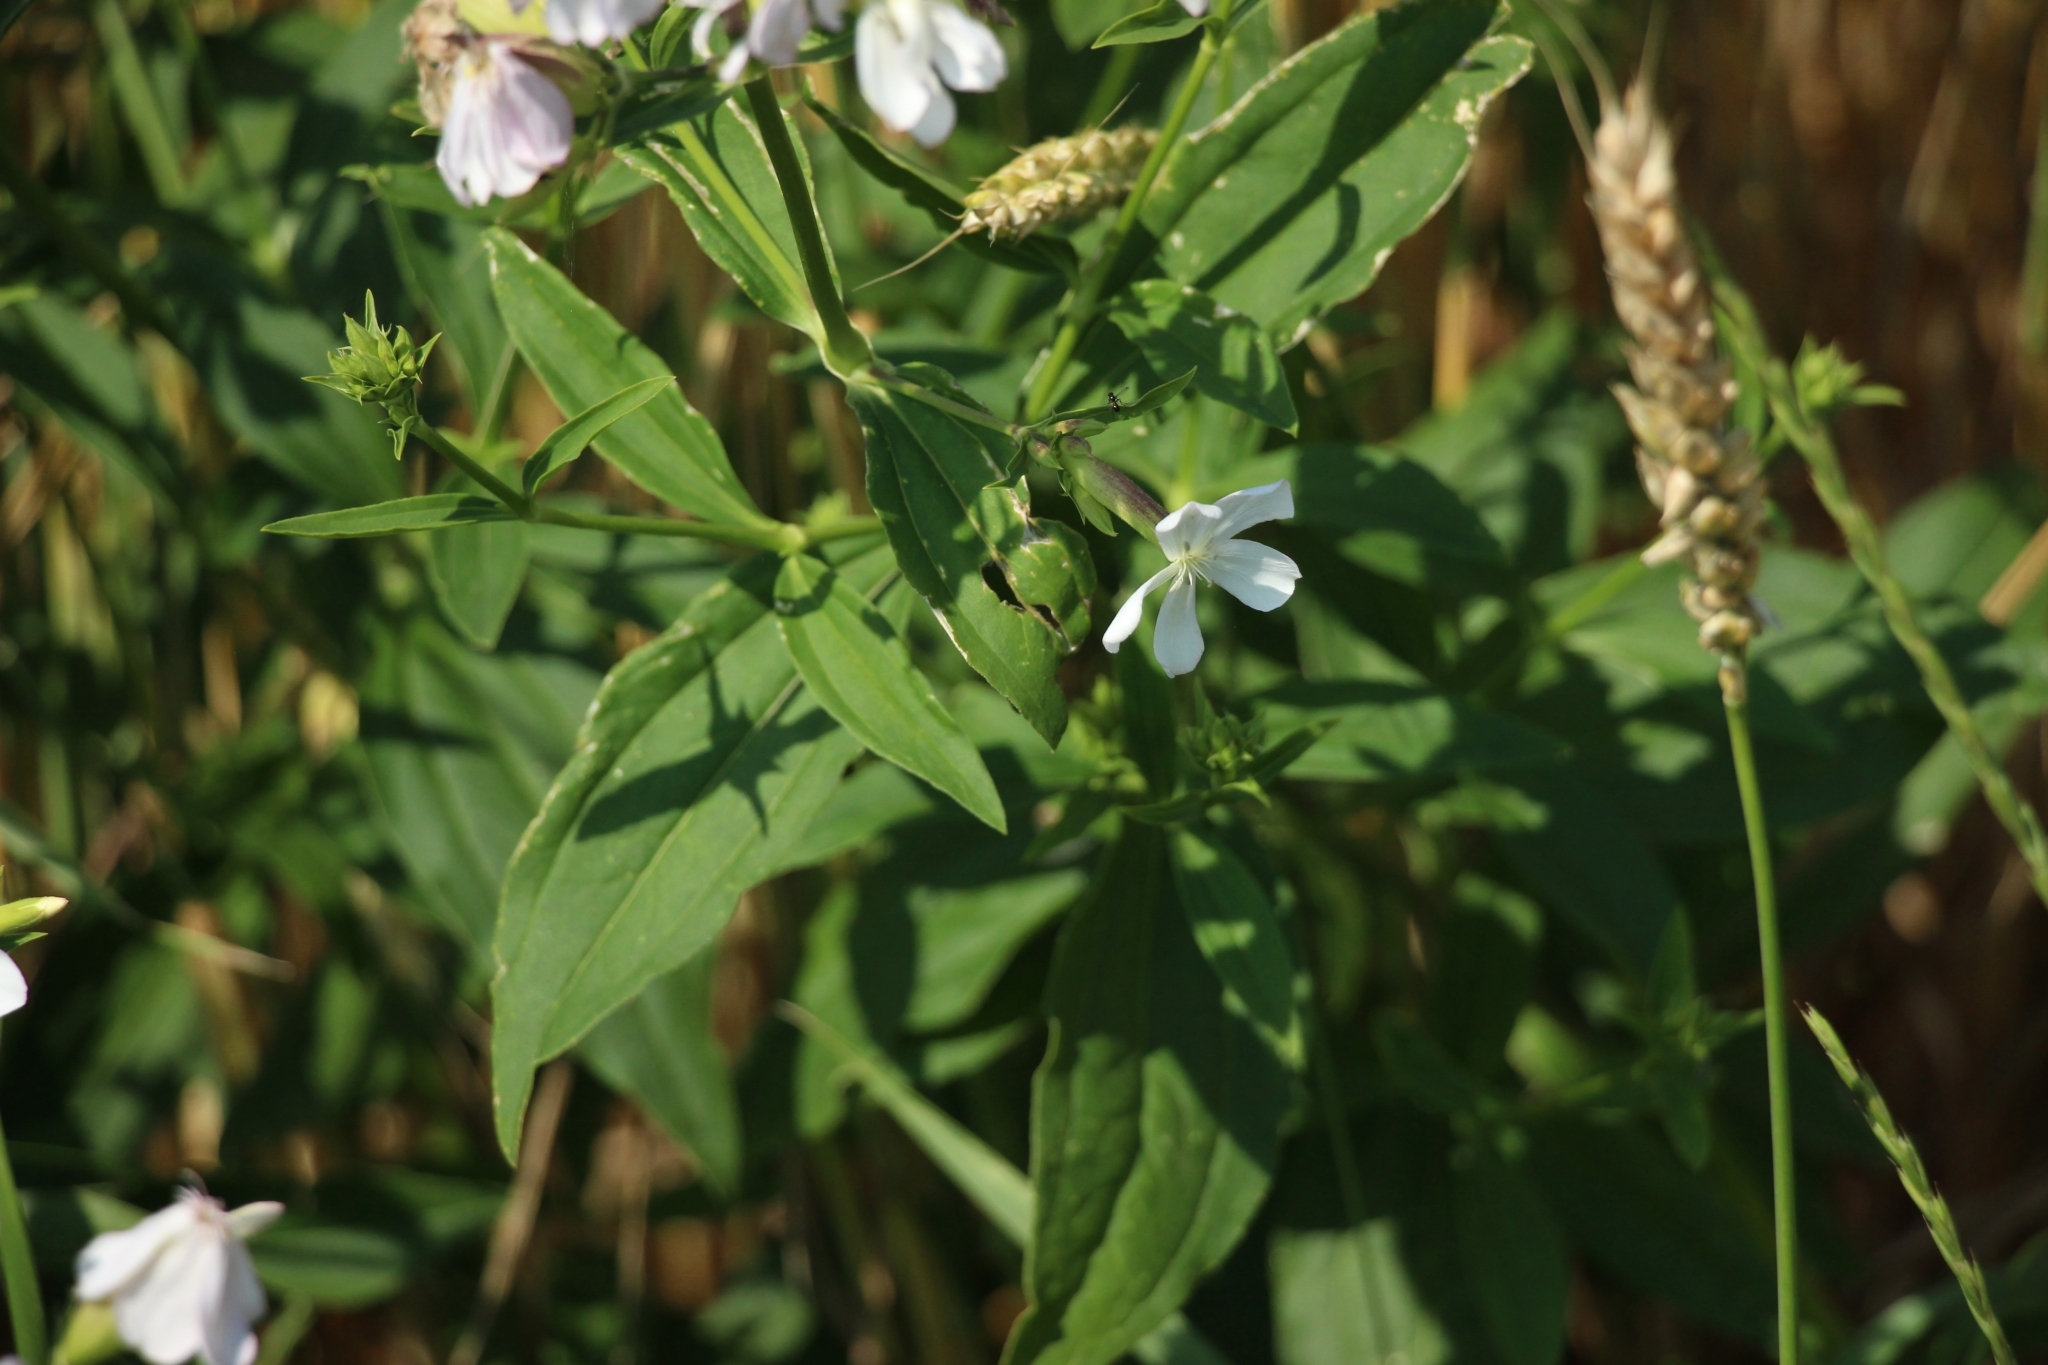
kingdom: Plantae
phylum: Tracheophyta
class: Magnoliopsida
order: Caryophyllales
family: Caryophyllaceae
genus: Saponaria
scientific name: Saponaria officinalis
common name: Soapwort
